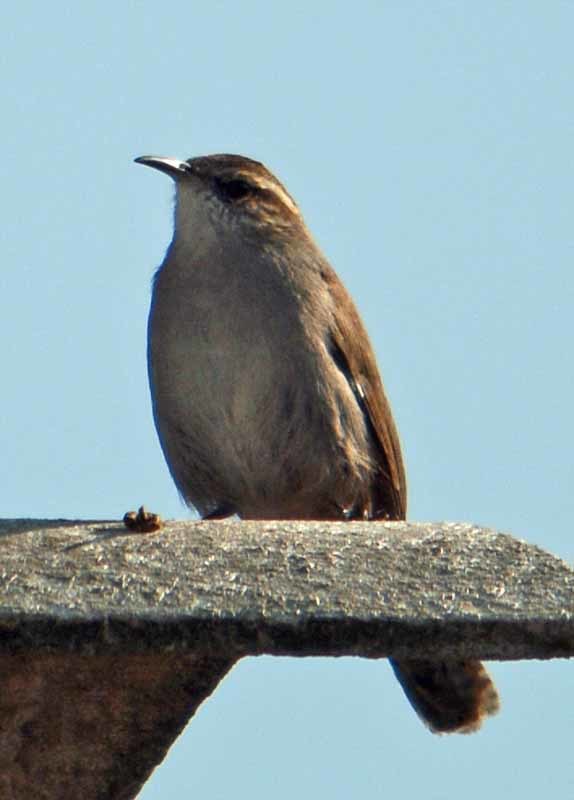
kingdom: Animalia
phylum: Chordata
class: Aves
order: Passeriformes
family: Troglodytidae
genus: Thryomanes
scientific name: Thryomanes bewickii
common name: Bewick's wren
